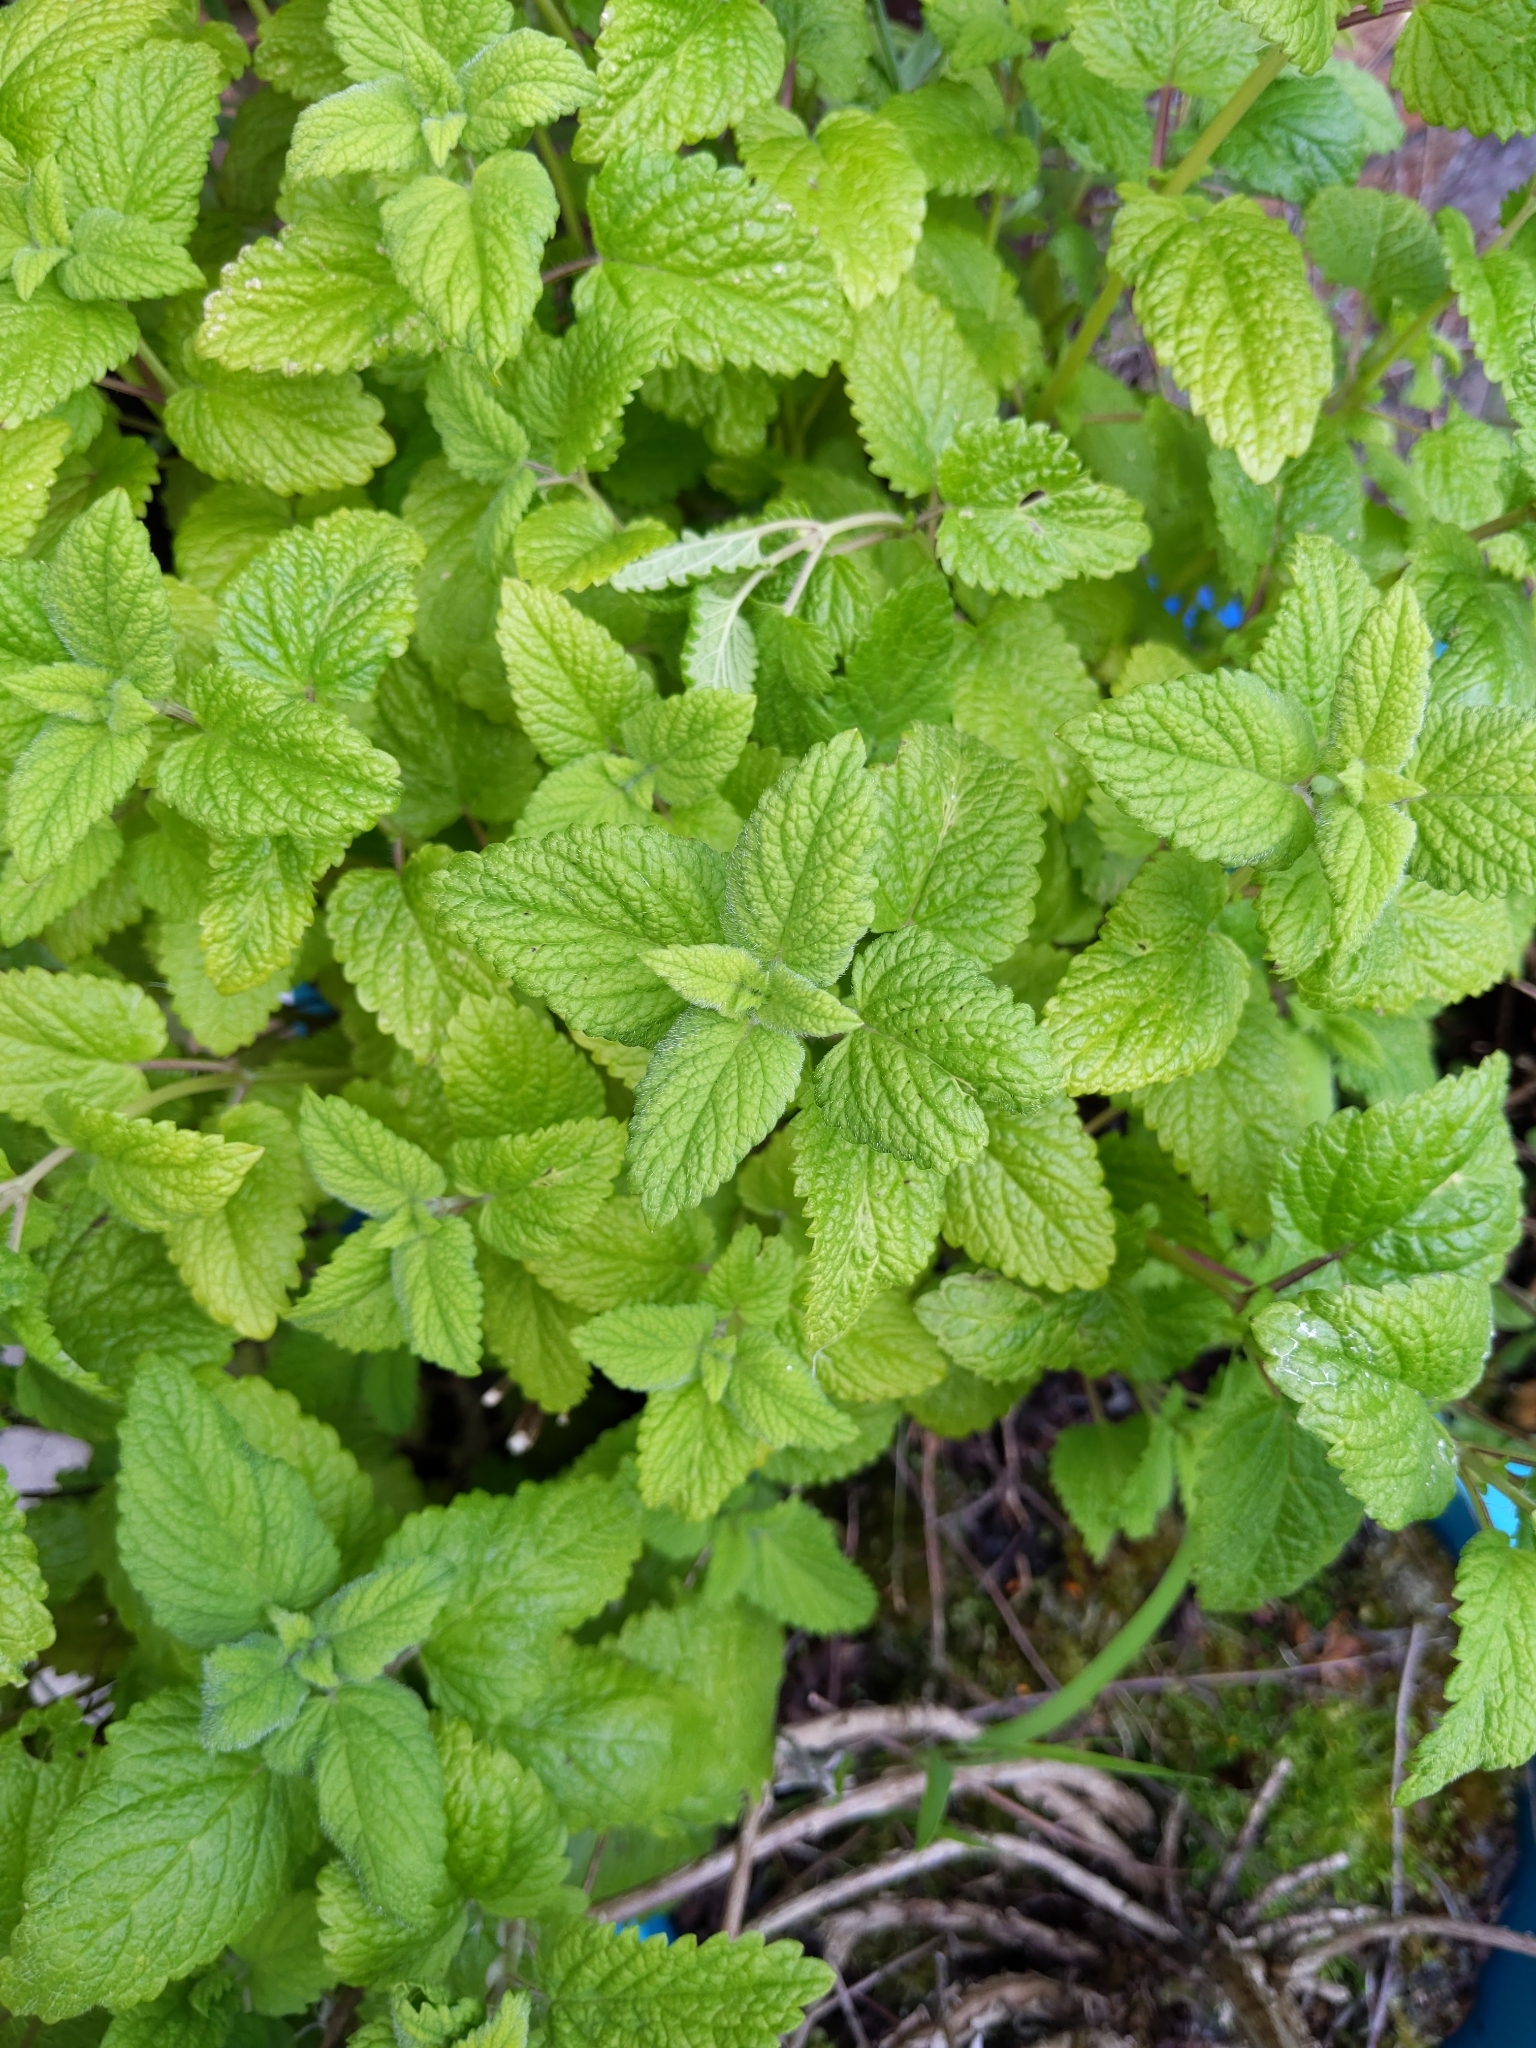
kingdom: Plantae
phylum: Tracheophyta
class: Magnoliopsida
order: Lamiales
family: Lamiaceae
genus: Melissa
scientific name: Melissa officinalis
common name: Balm
